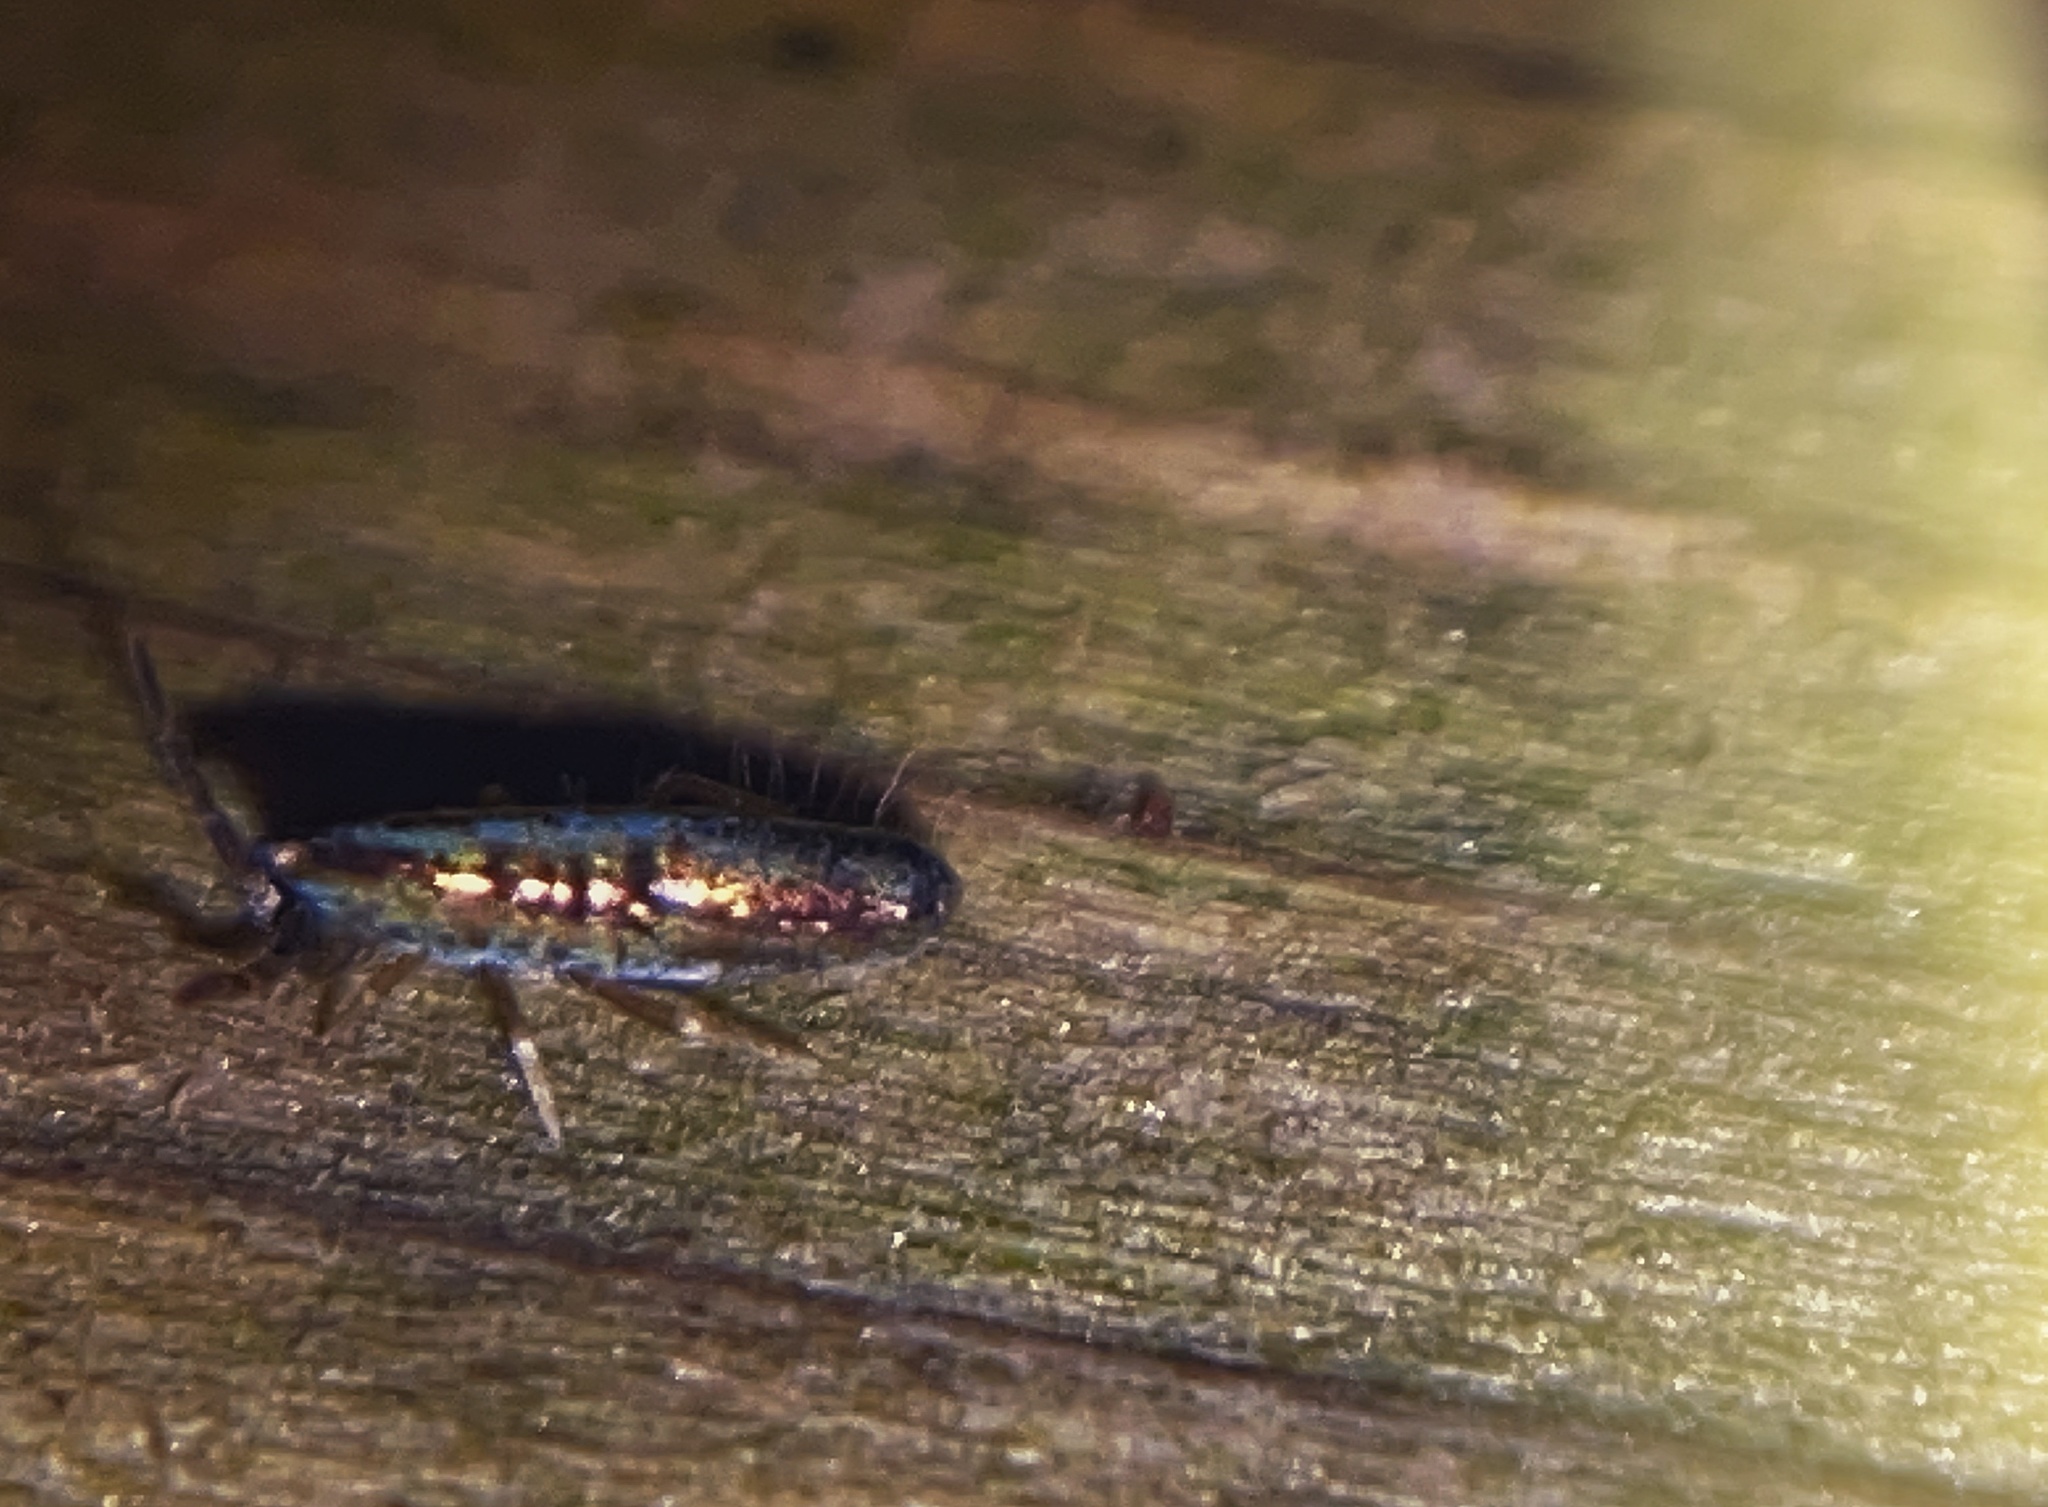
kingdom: Animalia
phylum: Arthropoda
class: Collembola
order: Entomobryomorpha
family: Entomobryidae
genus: Lepidocyrtus
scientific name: Lepidocyrtus paradoxus
